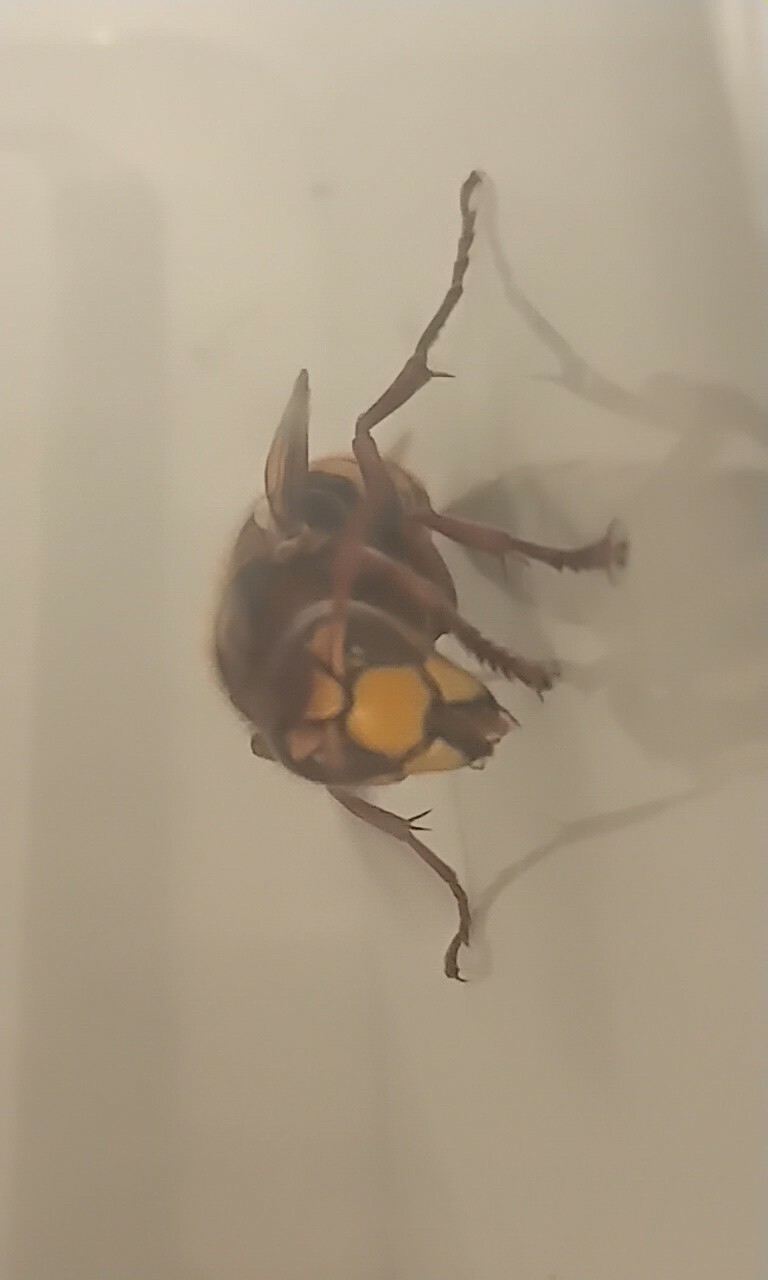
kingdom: Animalia
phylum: Arthropoda
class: Insecta
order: Hymenoptera
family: Vespidae
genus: Vespa
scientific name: Vespa crabro
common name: Hornet
